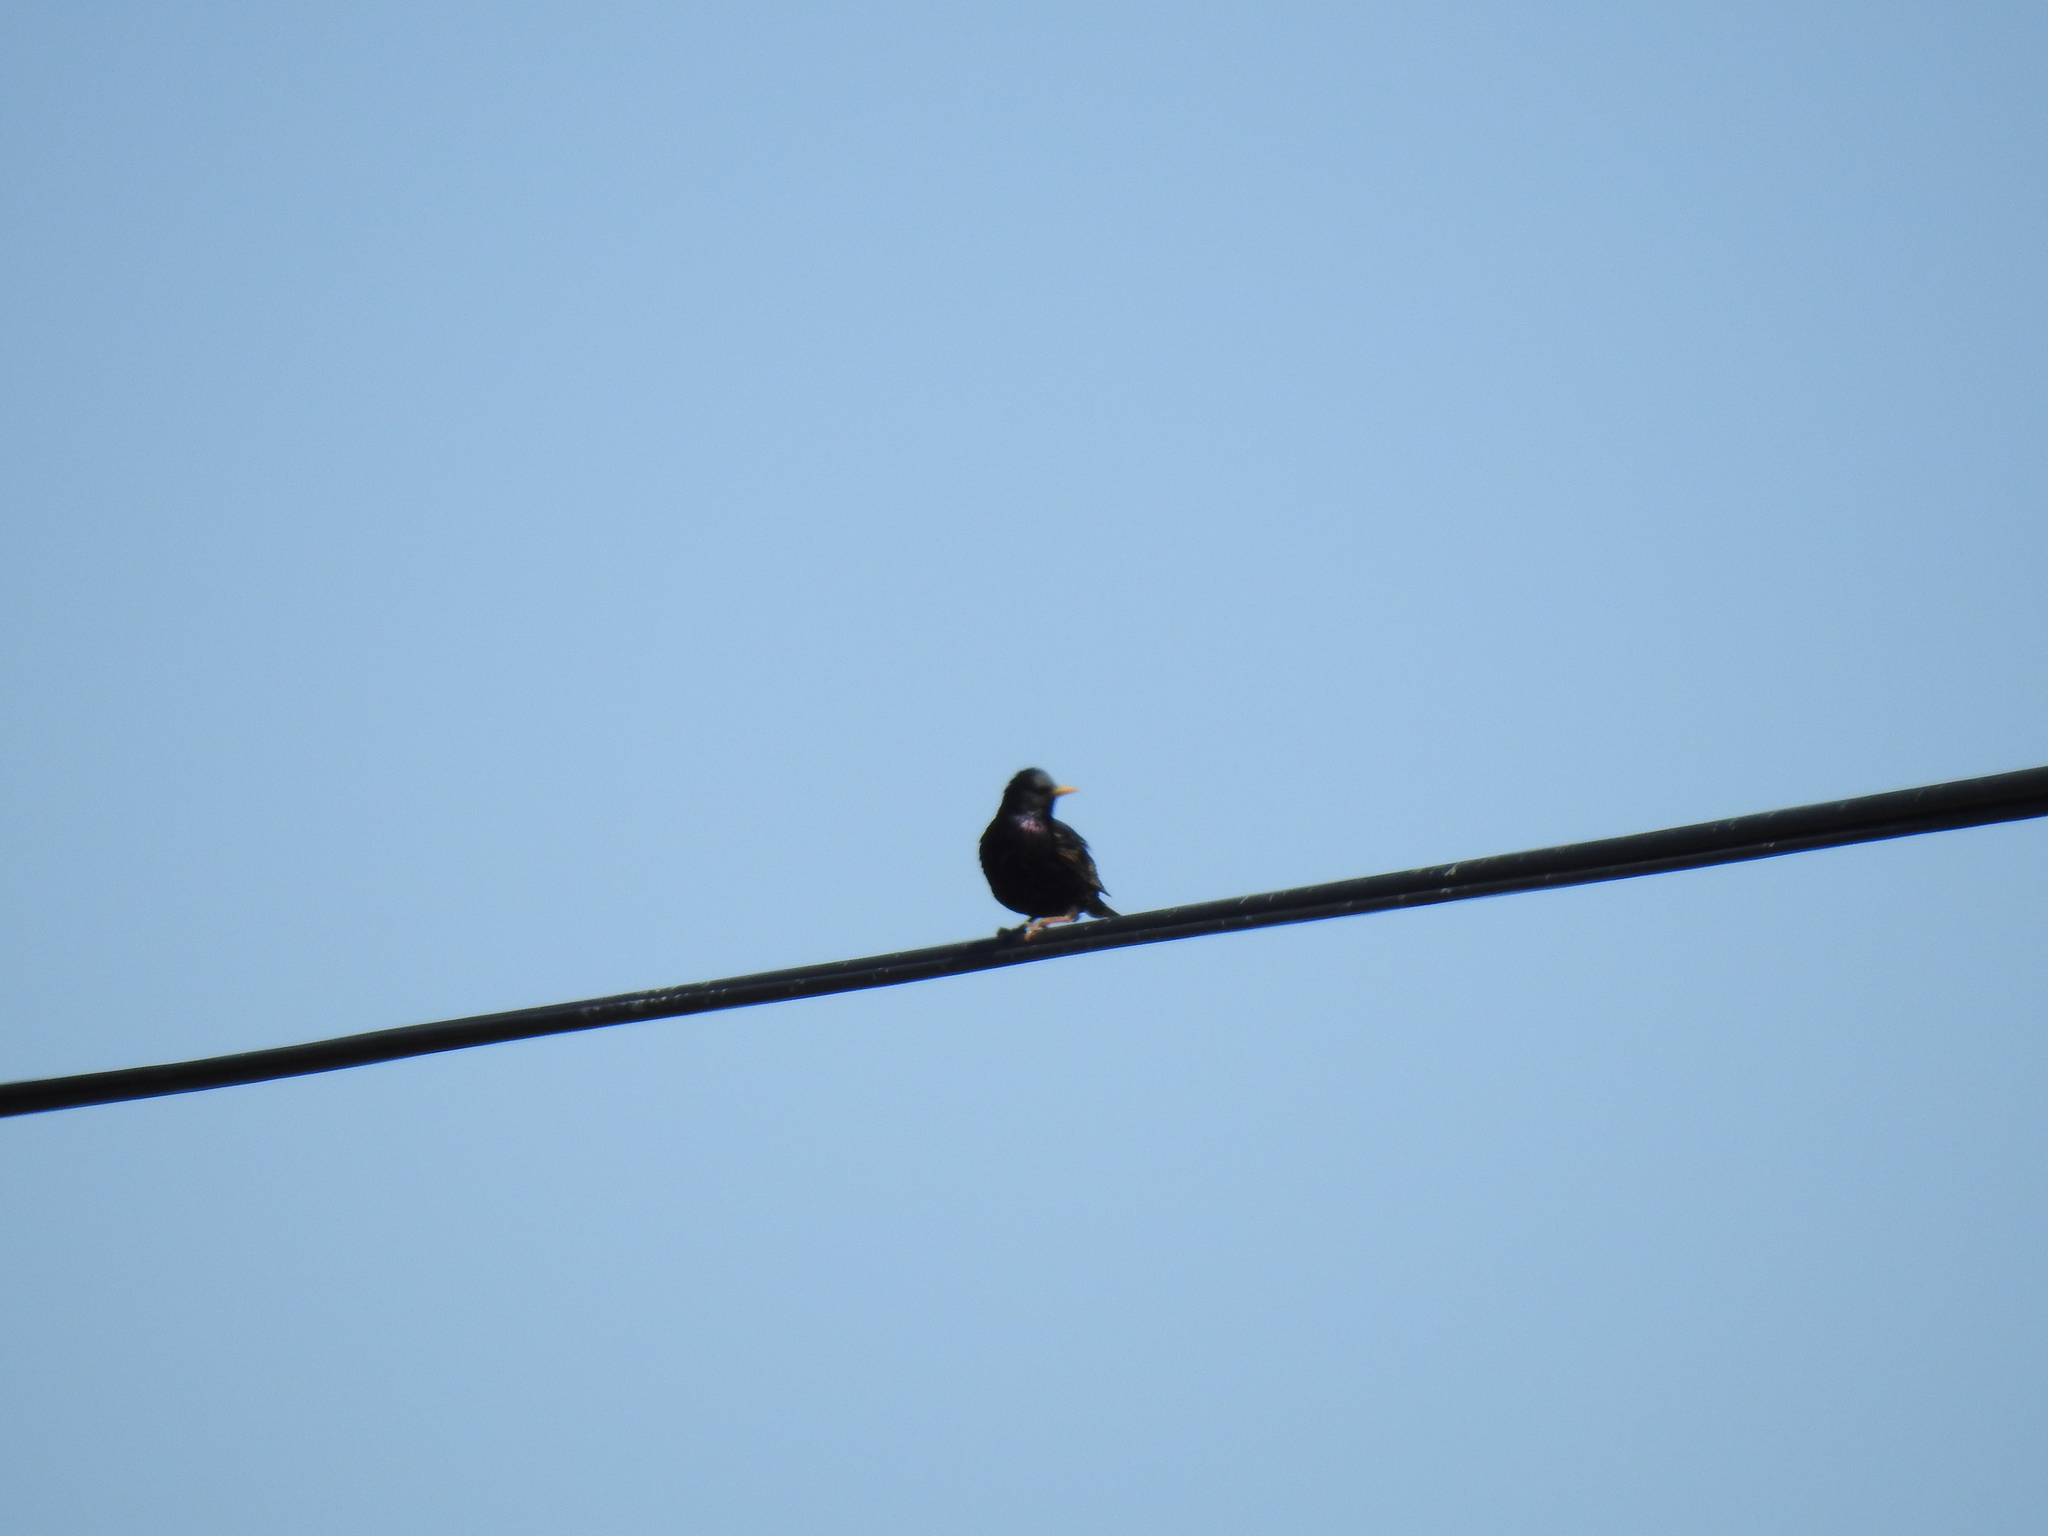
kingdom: Animalia
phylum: Chordata
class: Aves
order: Passeriformes
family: Sturnidae
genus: Sturnus
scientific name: Sturnus vulgaris
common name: Common starling
